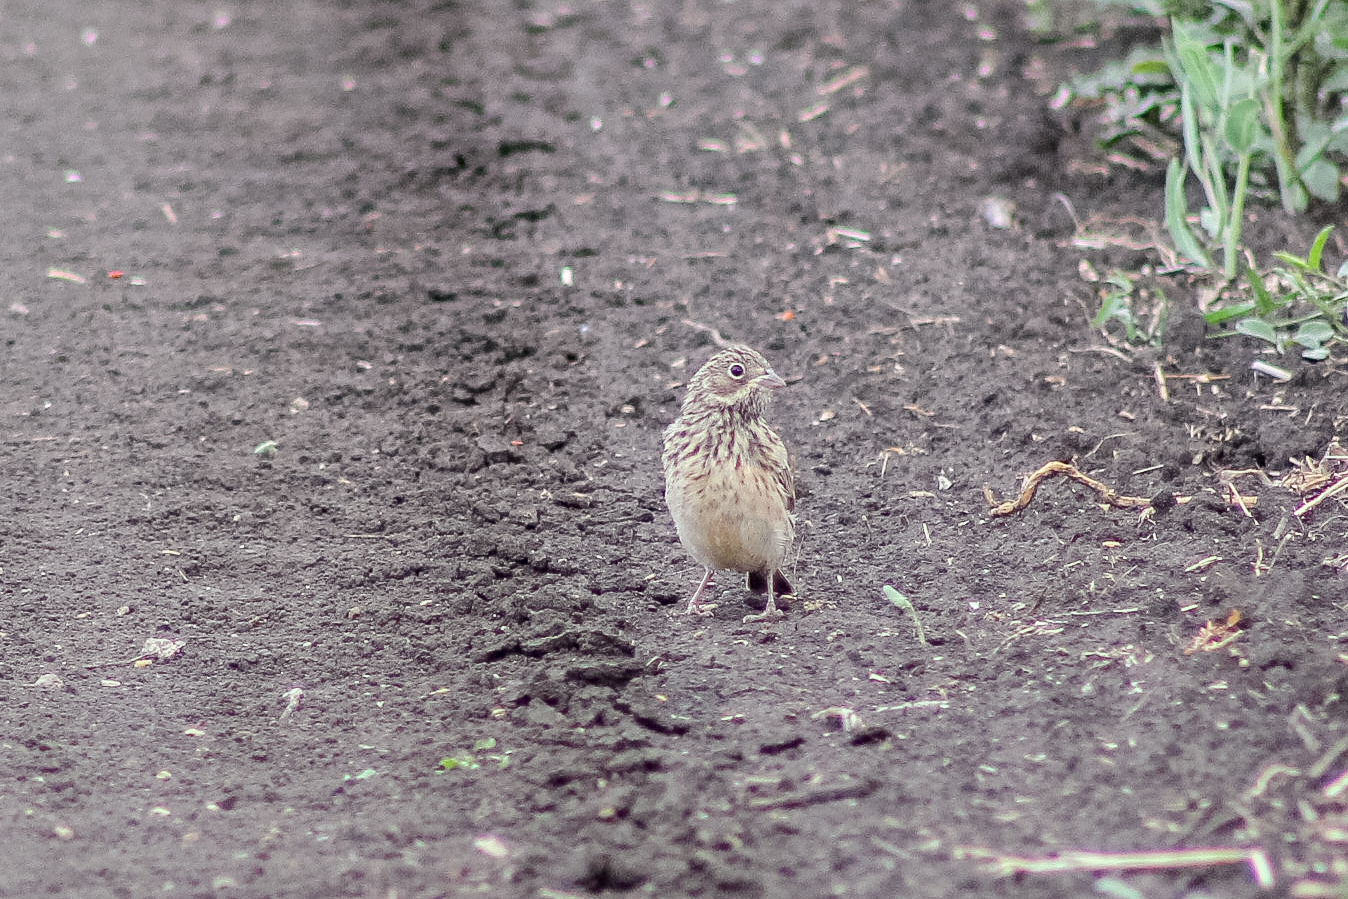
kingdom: Animalia
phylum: Chordata
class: Aves
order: Passeriformes
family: Emberizidae
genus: Emberiza
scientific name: Emberiza hortulana
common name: Ortolan bunting
